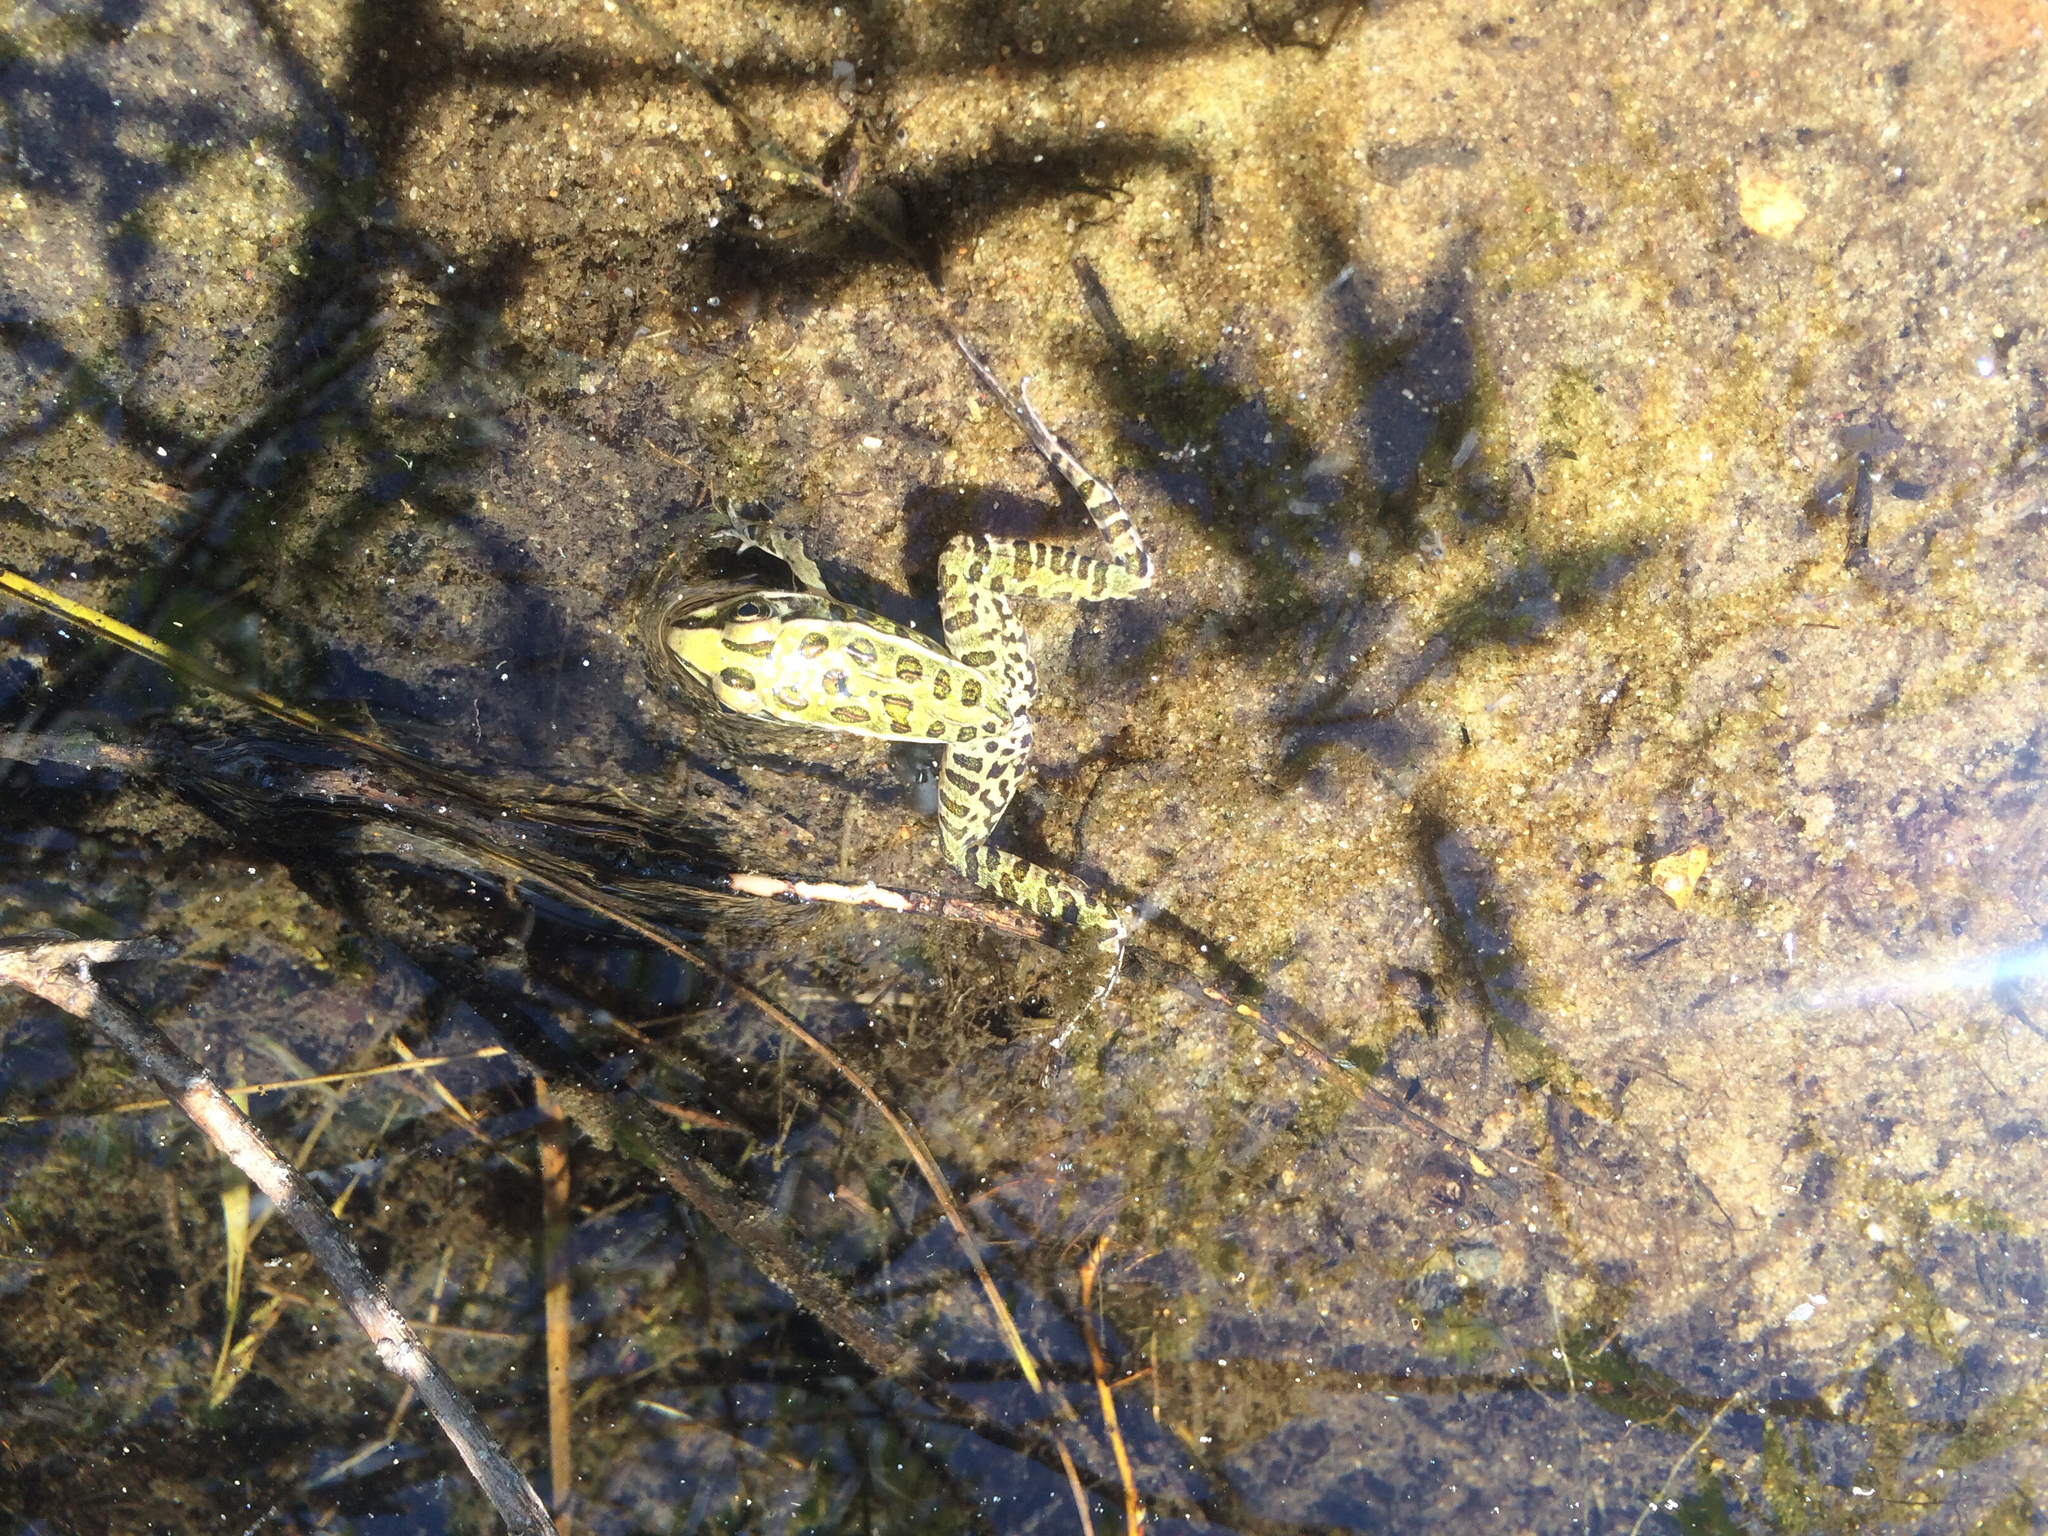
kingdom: Animalia
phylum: Chordata
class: Amphibia
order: Anura
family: Ranidae
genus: Lithobates
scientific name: Lithobates pipiens
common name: Northern leopard frog
